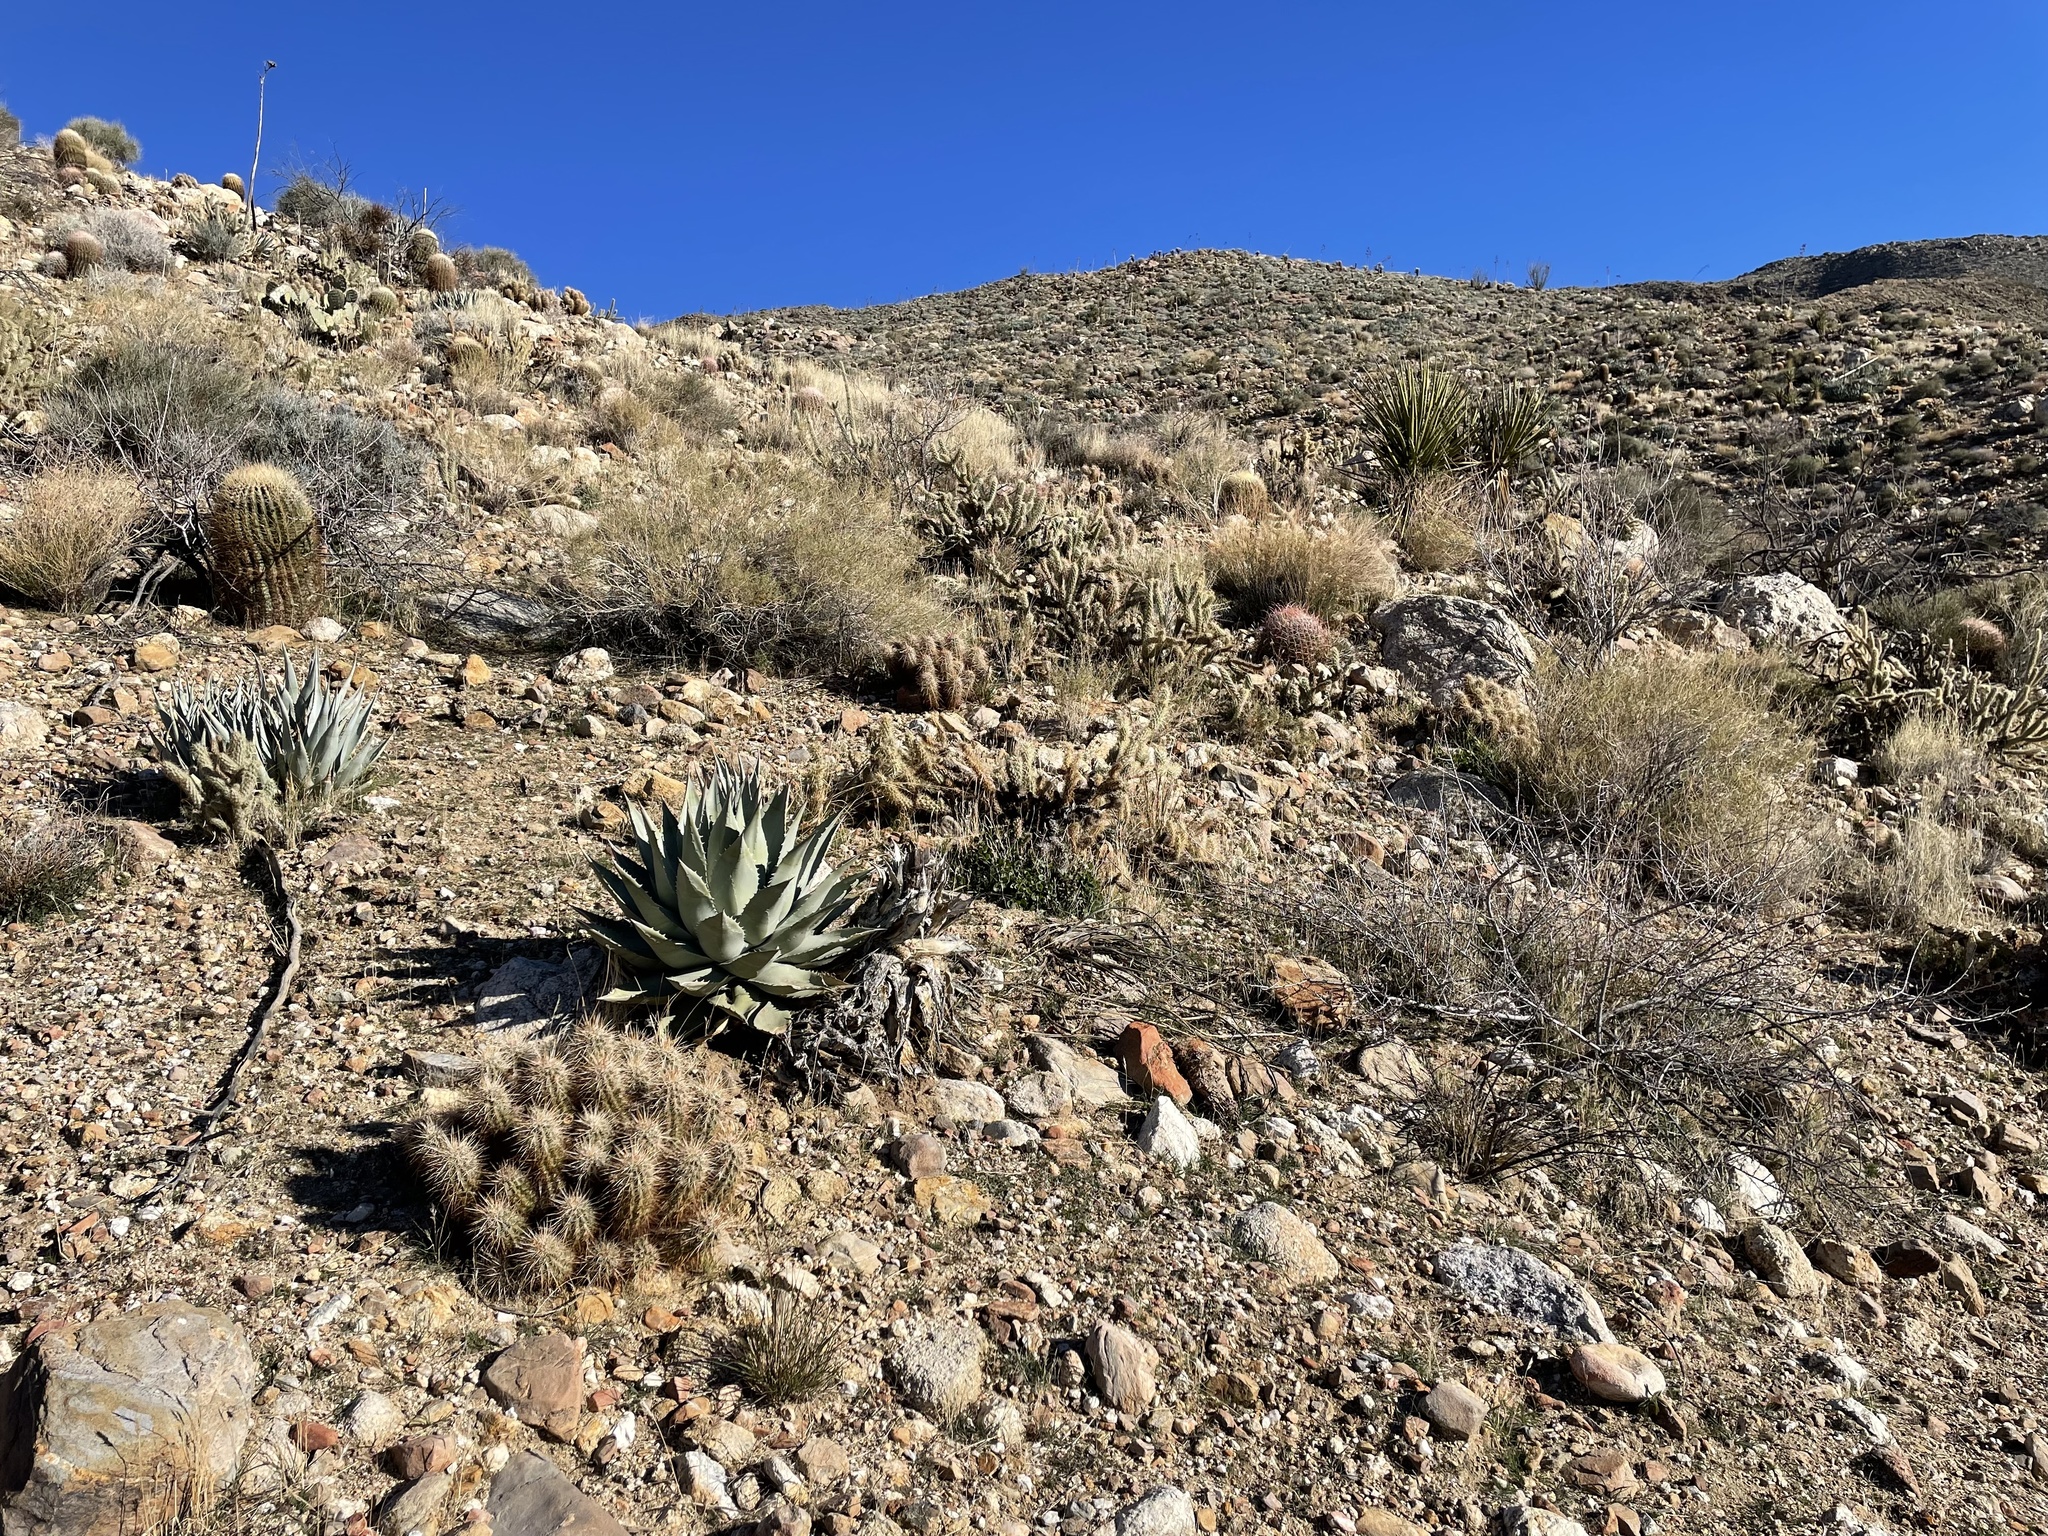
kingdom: Plantae
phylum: Tracheophyta
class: Liliopsida
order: Asparagales
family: Asparagaceae
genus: Agave
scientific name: Agave deserti
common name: Desert agave
